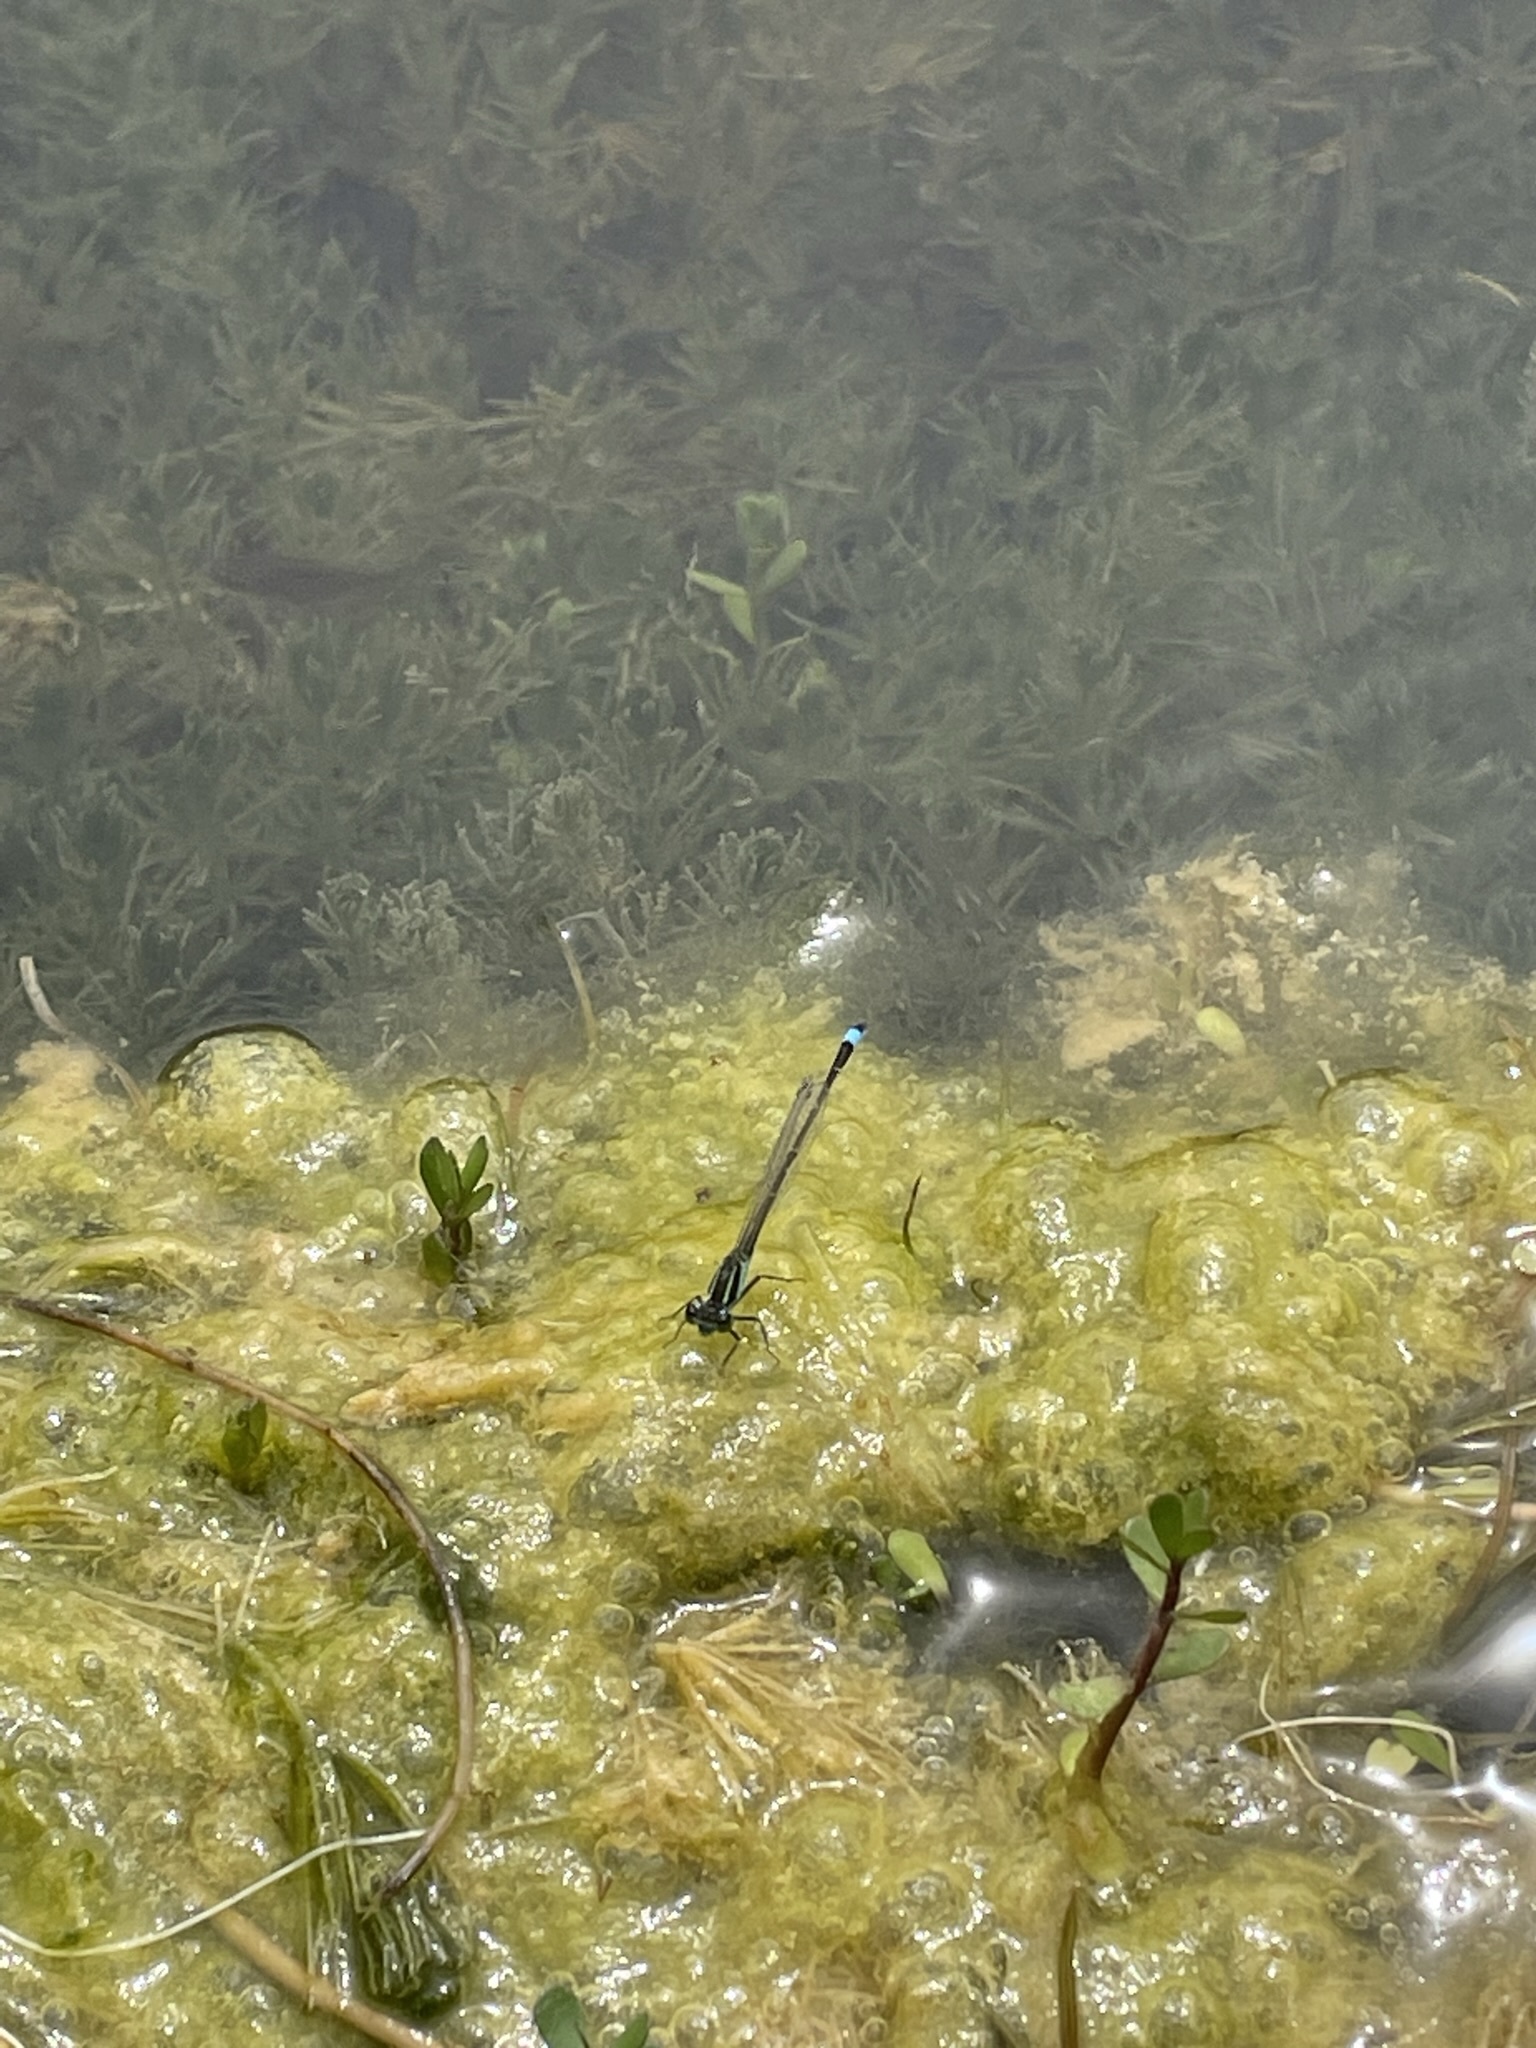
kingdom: Animalia
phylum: Arthropoda
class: Insecta
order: Odonata
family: Coenagrionidae
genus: Ischnura
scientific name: Ischnura ramburii
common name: Rambur's forktail
